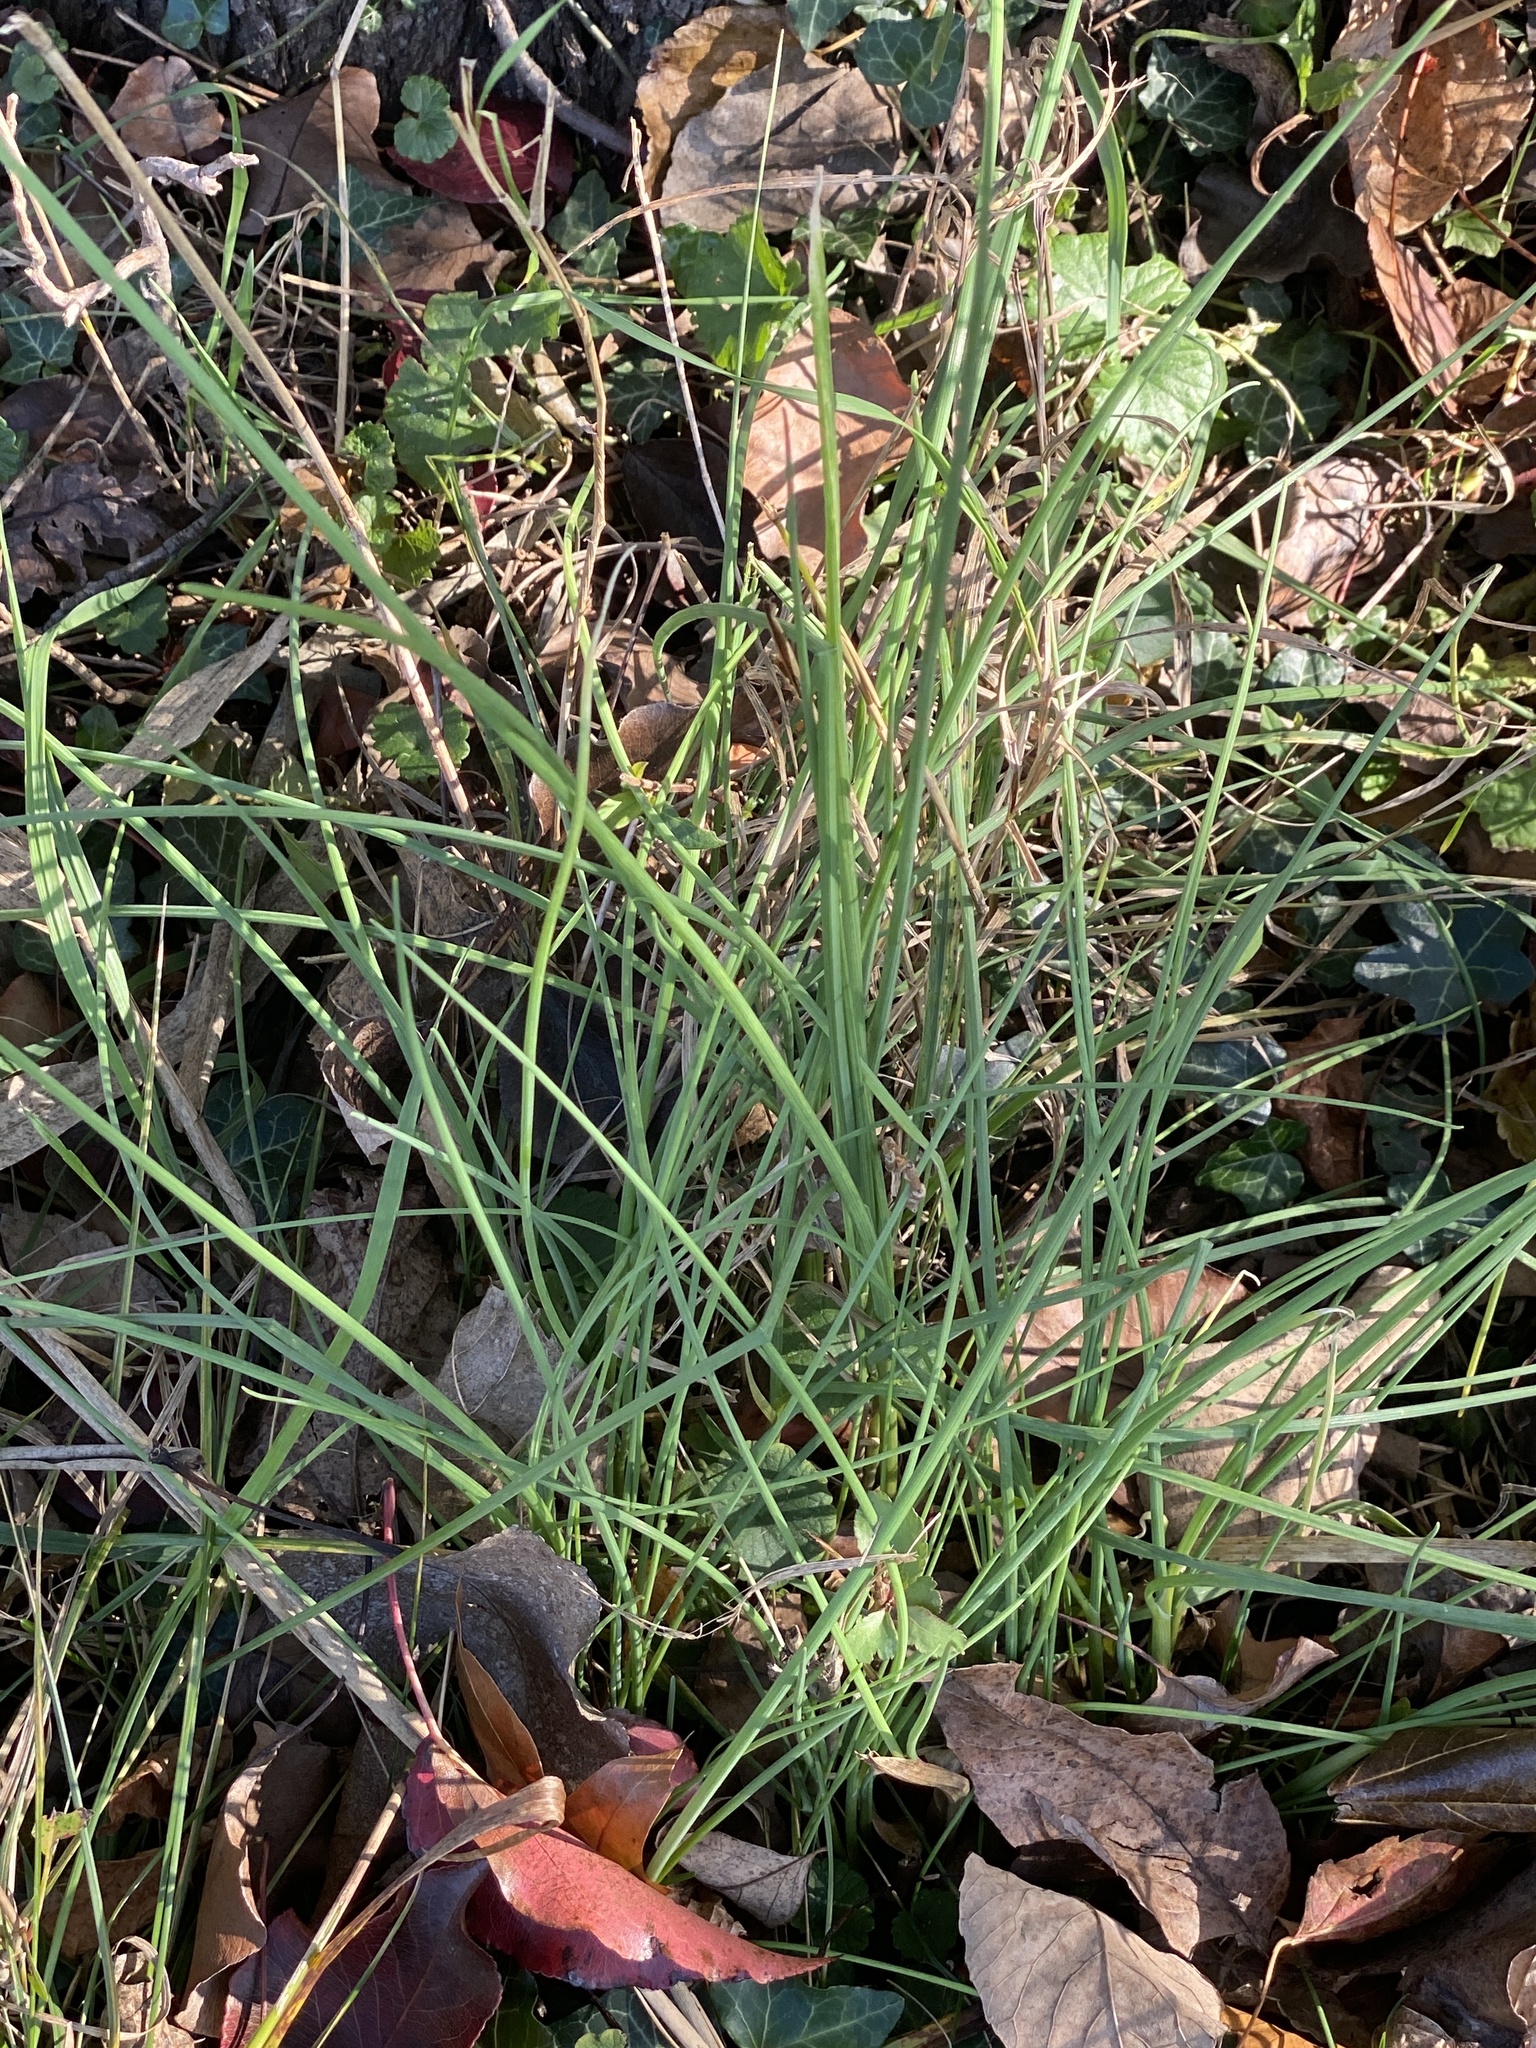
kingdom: Plantae
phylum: Tracheophyta
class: Liliopsida
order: Asparagales
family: Amaryllidaceae
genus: Allium
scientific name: Allium vineale
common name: Crow garlic
